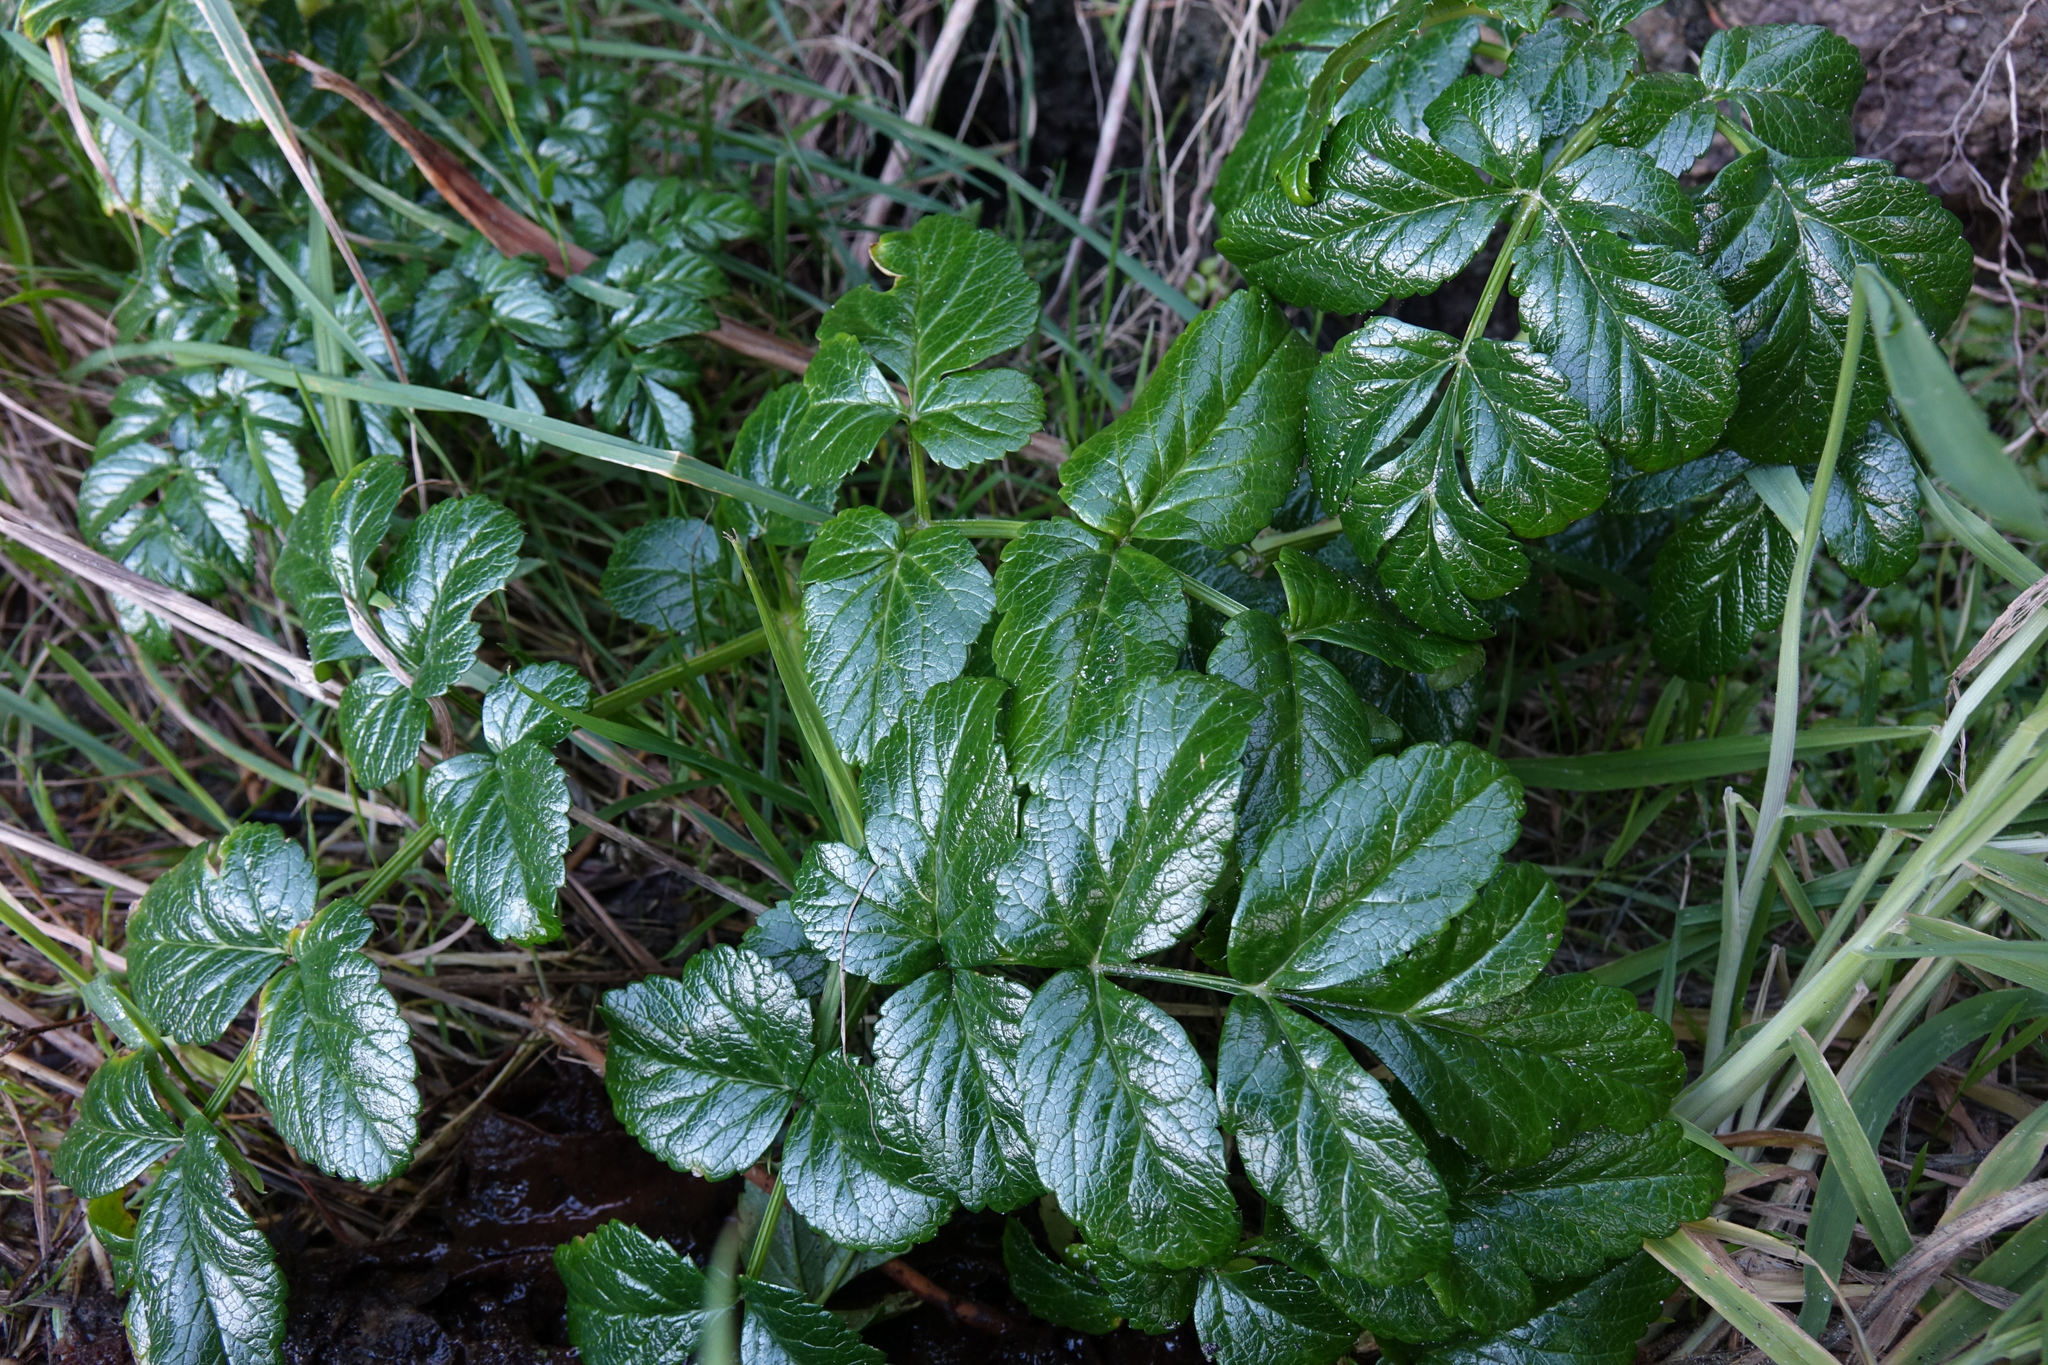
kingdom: Plantae
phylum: Tracheophyta
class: Magnoliopsida
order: Apiales
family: Apiaceae
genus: Angelica
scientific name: Angelica pachycarpa
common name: Portuguese angelica
